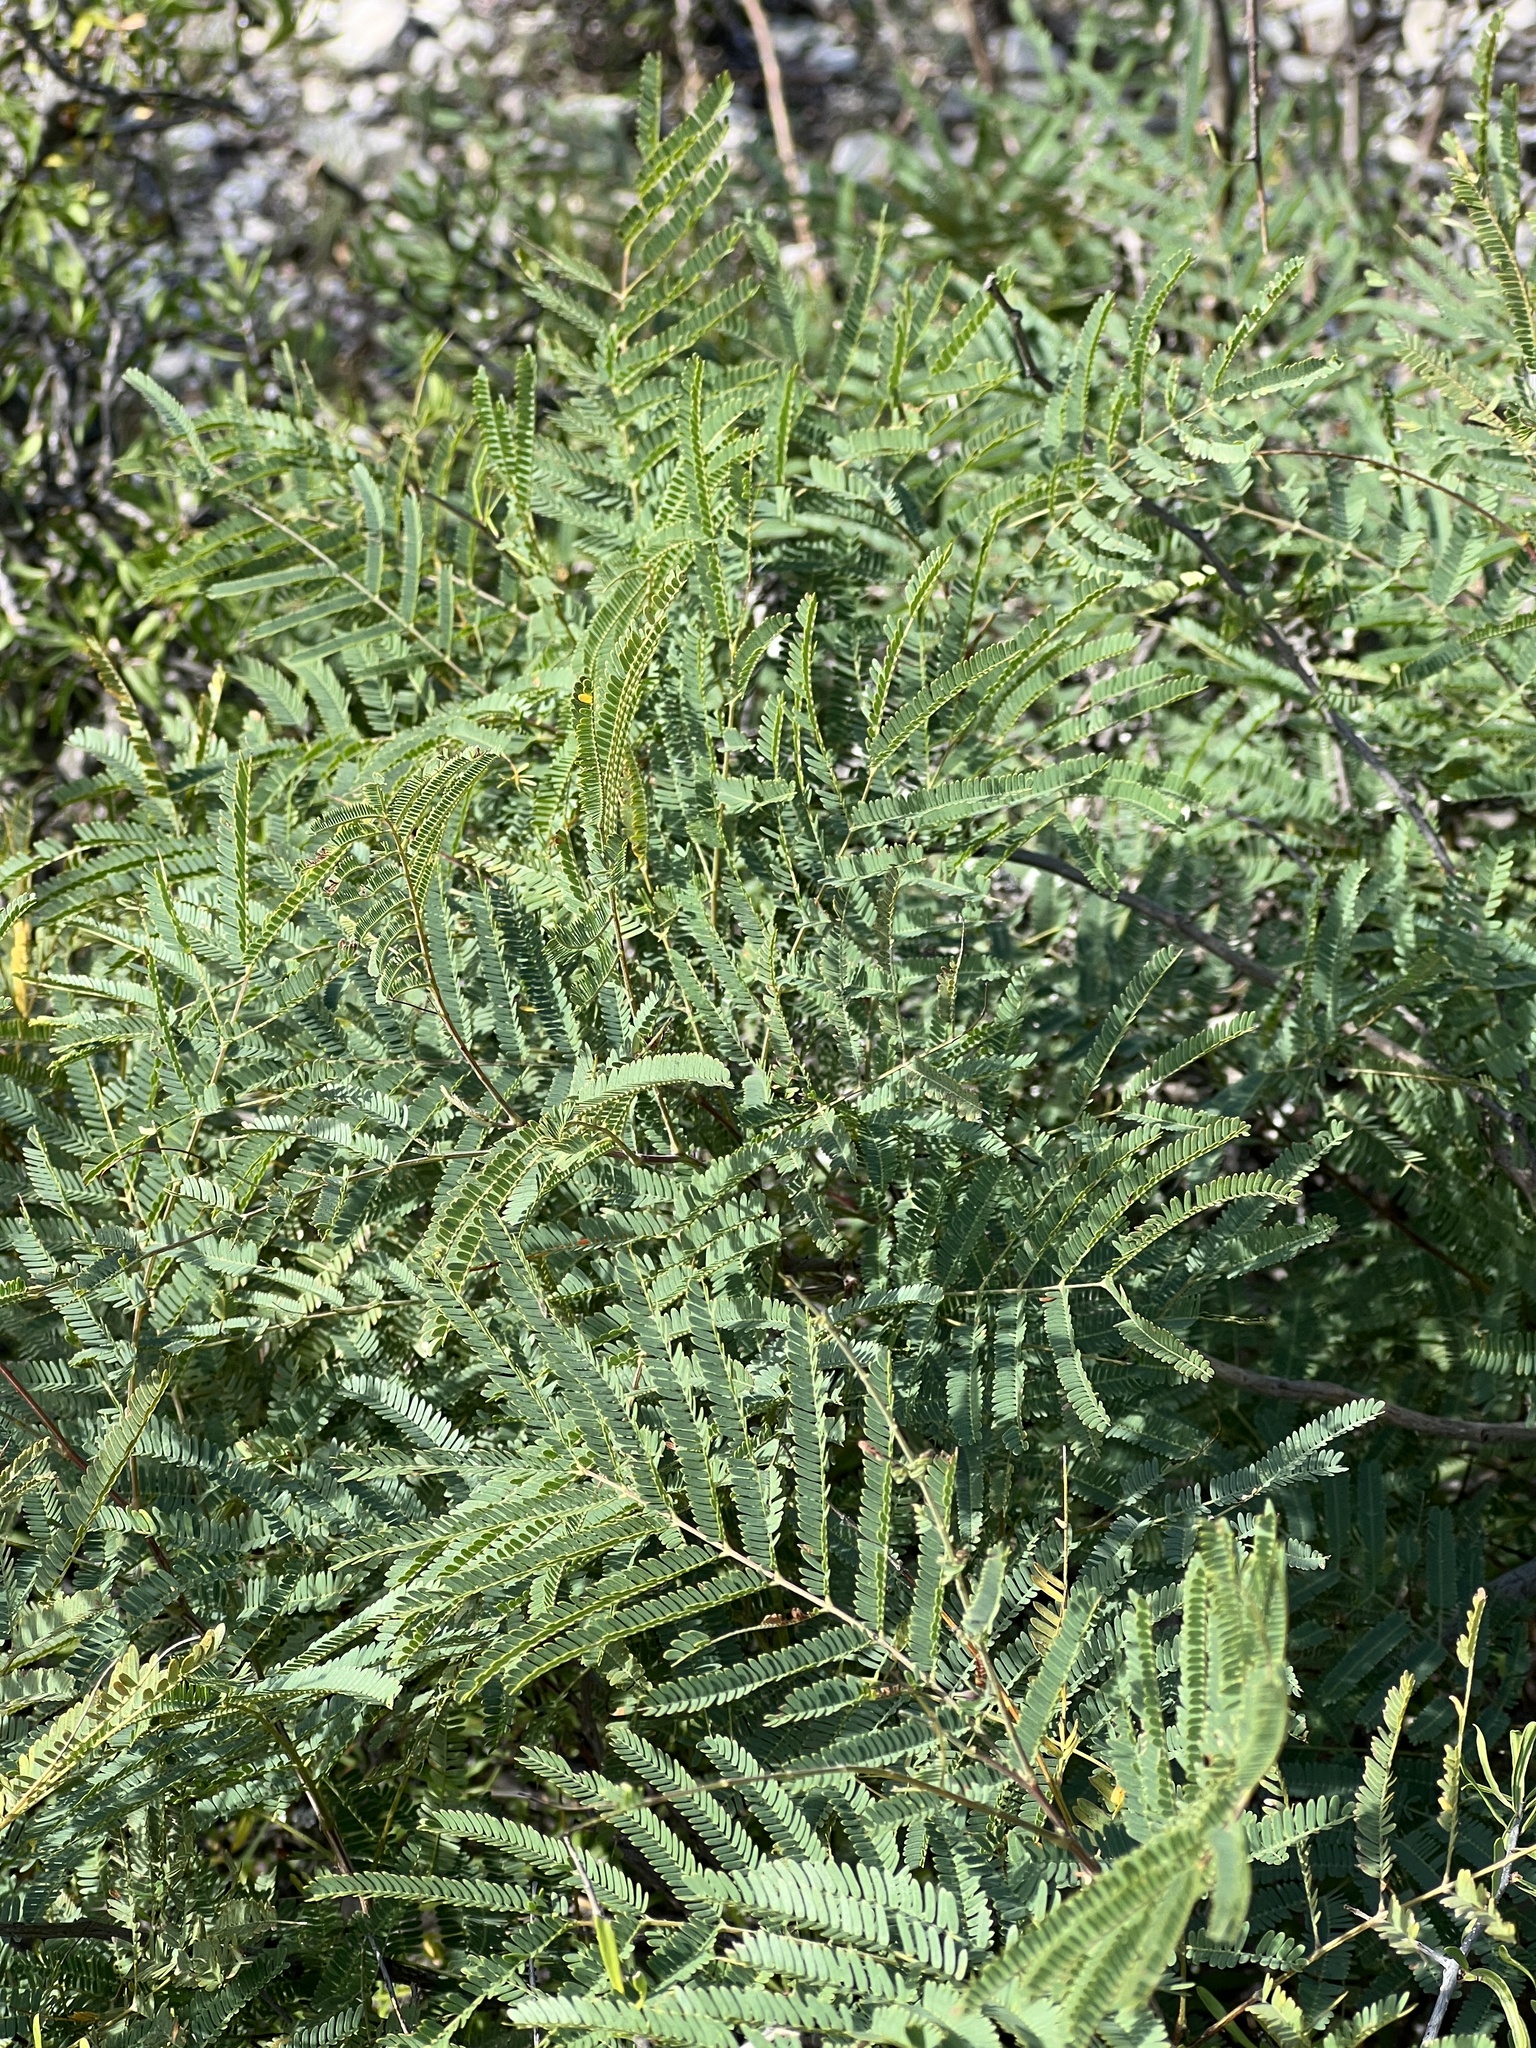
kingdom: Plantae
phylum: Tracheophyta
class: Magnoliopsida
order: Fabales
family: Fabaceae
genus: Senegalia
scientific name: Senegalia berlandieri
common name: Berlandier acacia
